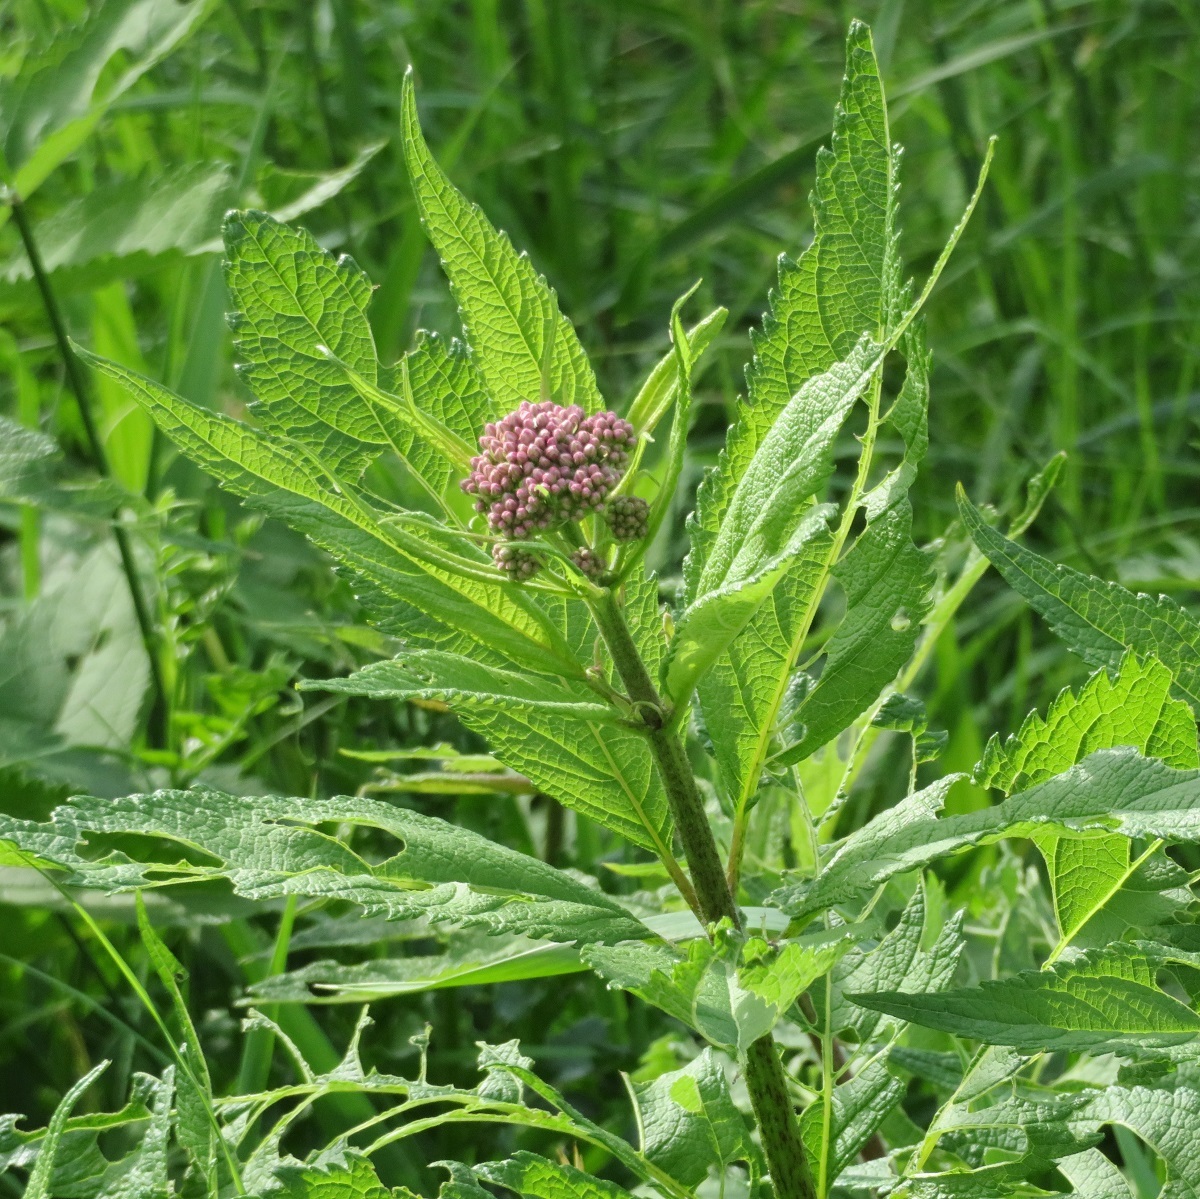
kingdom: Plantae
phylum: Tracheophyta
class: Magnoliopsida
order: Asterales
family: Asteraceae
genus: Eutrochium
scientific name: Eutrochium maculatum
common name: Spotted joe pye weed
